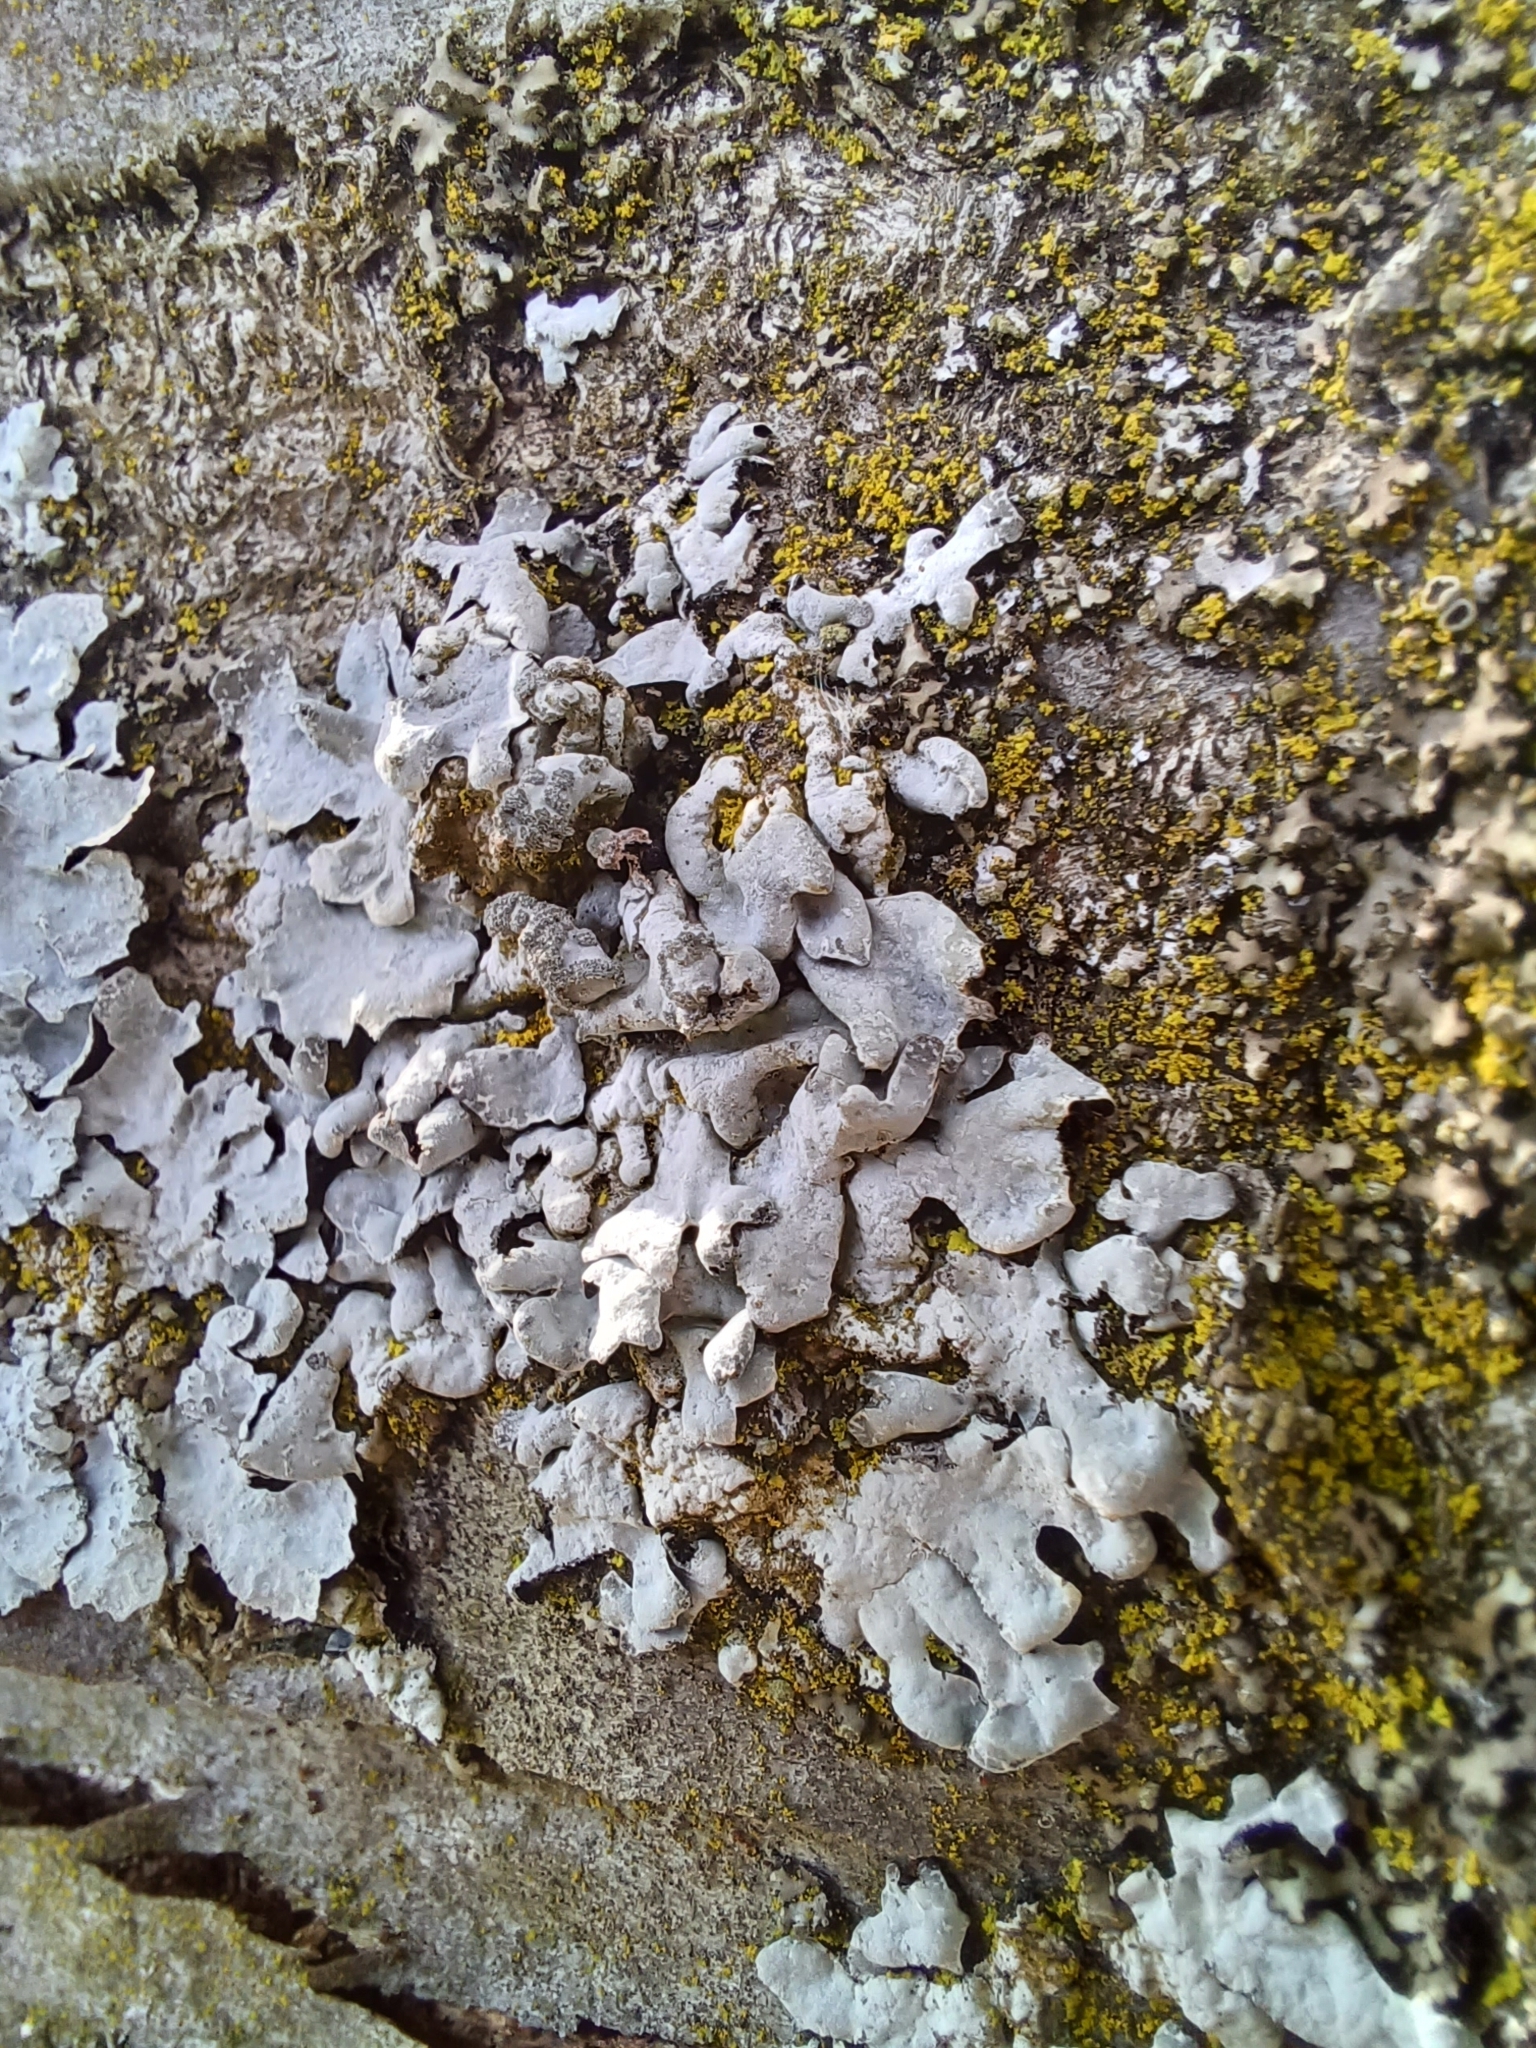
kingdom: Fungi
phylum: Ascomycota
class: Lecanoromycetes
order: Lecanorales
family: Parmeliaceae
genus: Myelochroa
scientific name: Myelochroa aurulenta
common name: Powdery axil-bristle lichen
